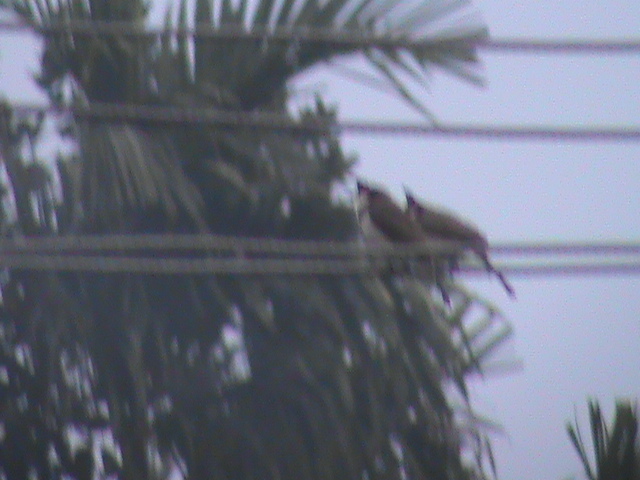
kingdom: Animalia
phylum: Chordata
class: Aves
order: Passeriformes
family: Pycnonotidae
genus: Pycnonotus
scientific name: Pycnonotus jocosus
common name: Red-whiskered bulbul
